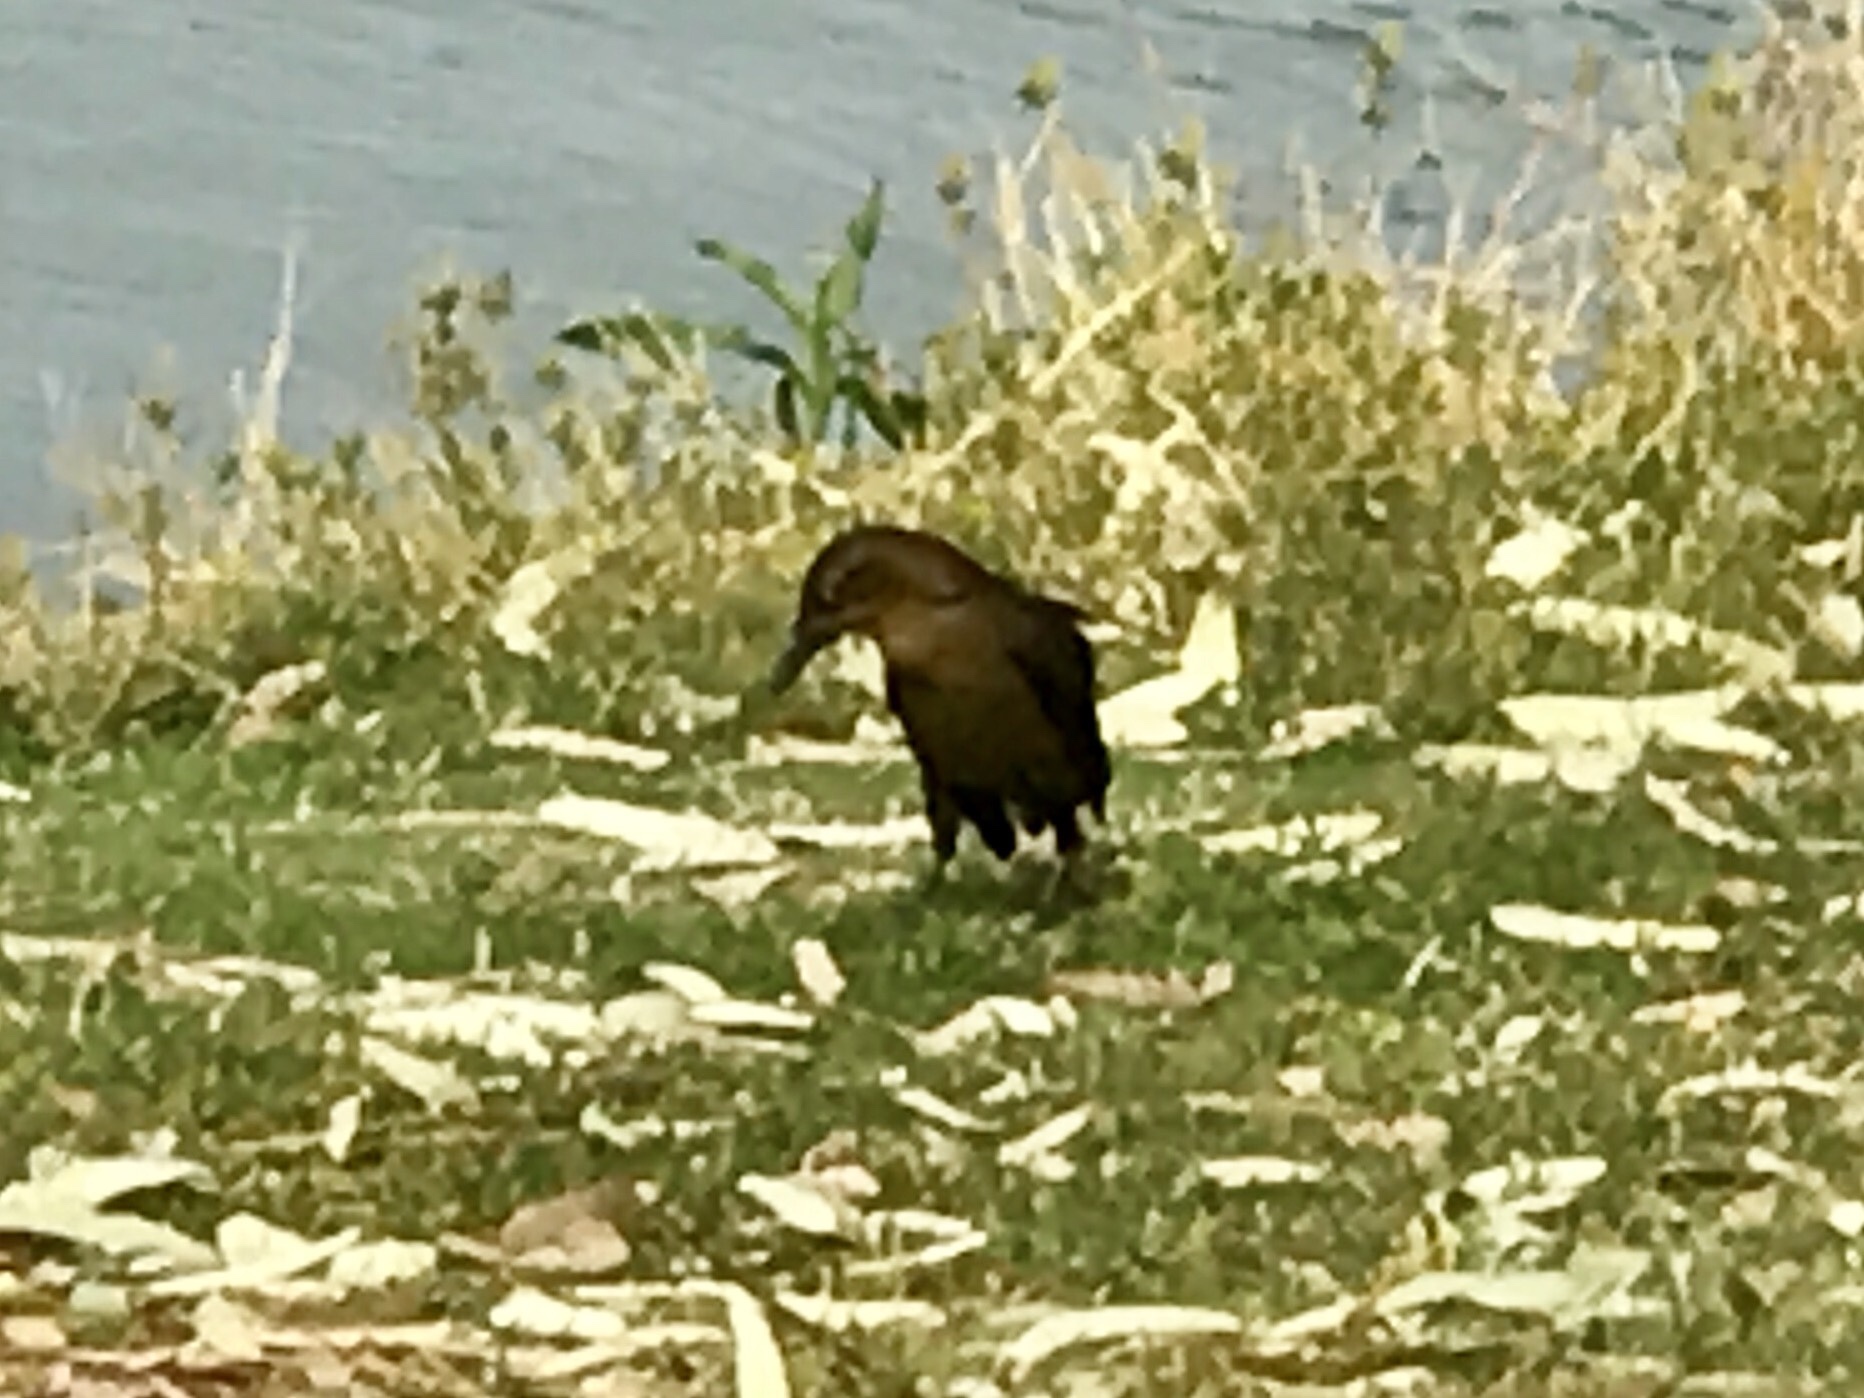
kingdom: Animalia
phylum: Chordata
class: Aves
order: Passeriformes
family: Icteridae
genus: Quiscalus
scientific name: Quiscalus mexicanus
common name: Great-tailed grackle
